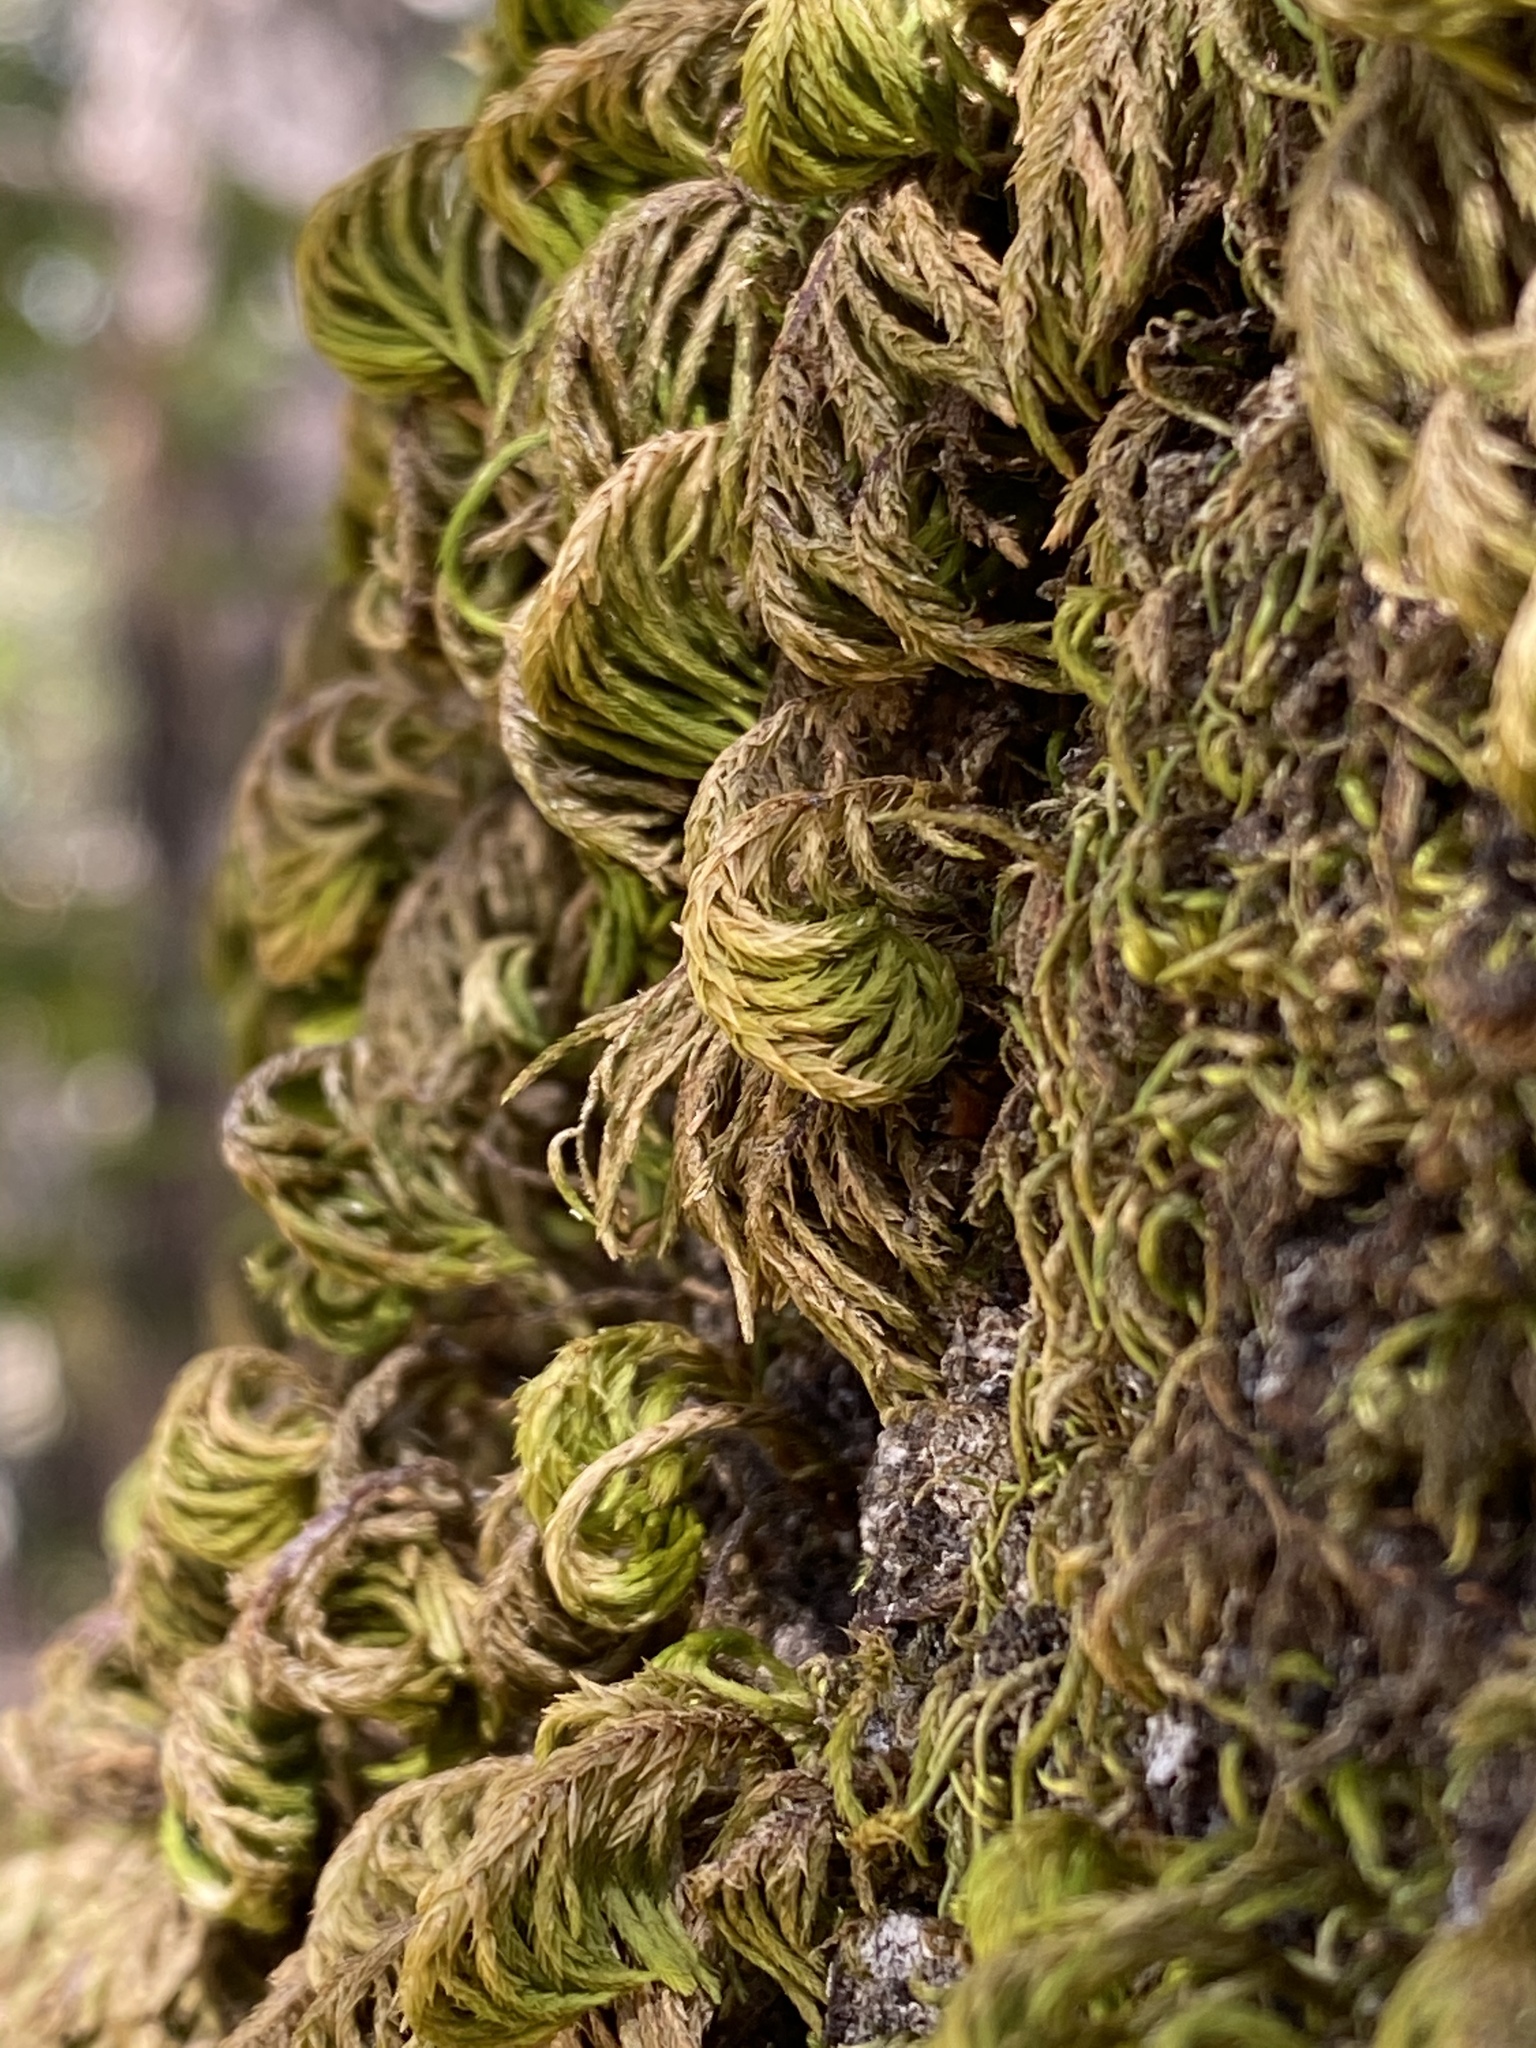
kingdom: Plantae
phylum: Bryophyta
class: Bryopsida
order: Hypnales
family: Cryphaeaceae
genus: Dendroalsia
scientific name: Dendroalsia abietina
